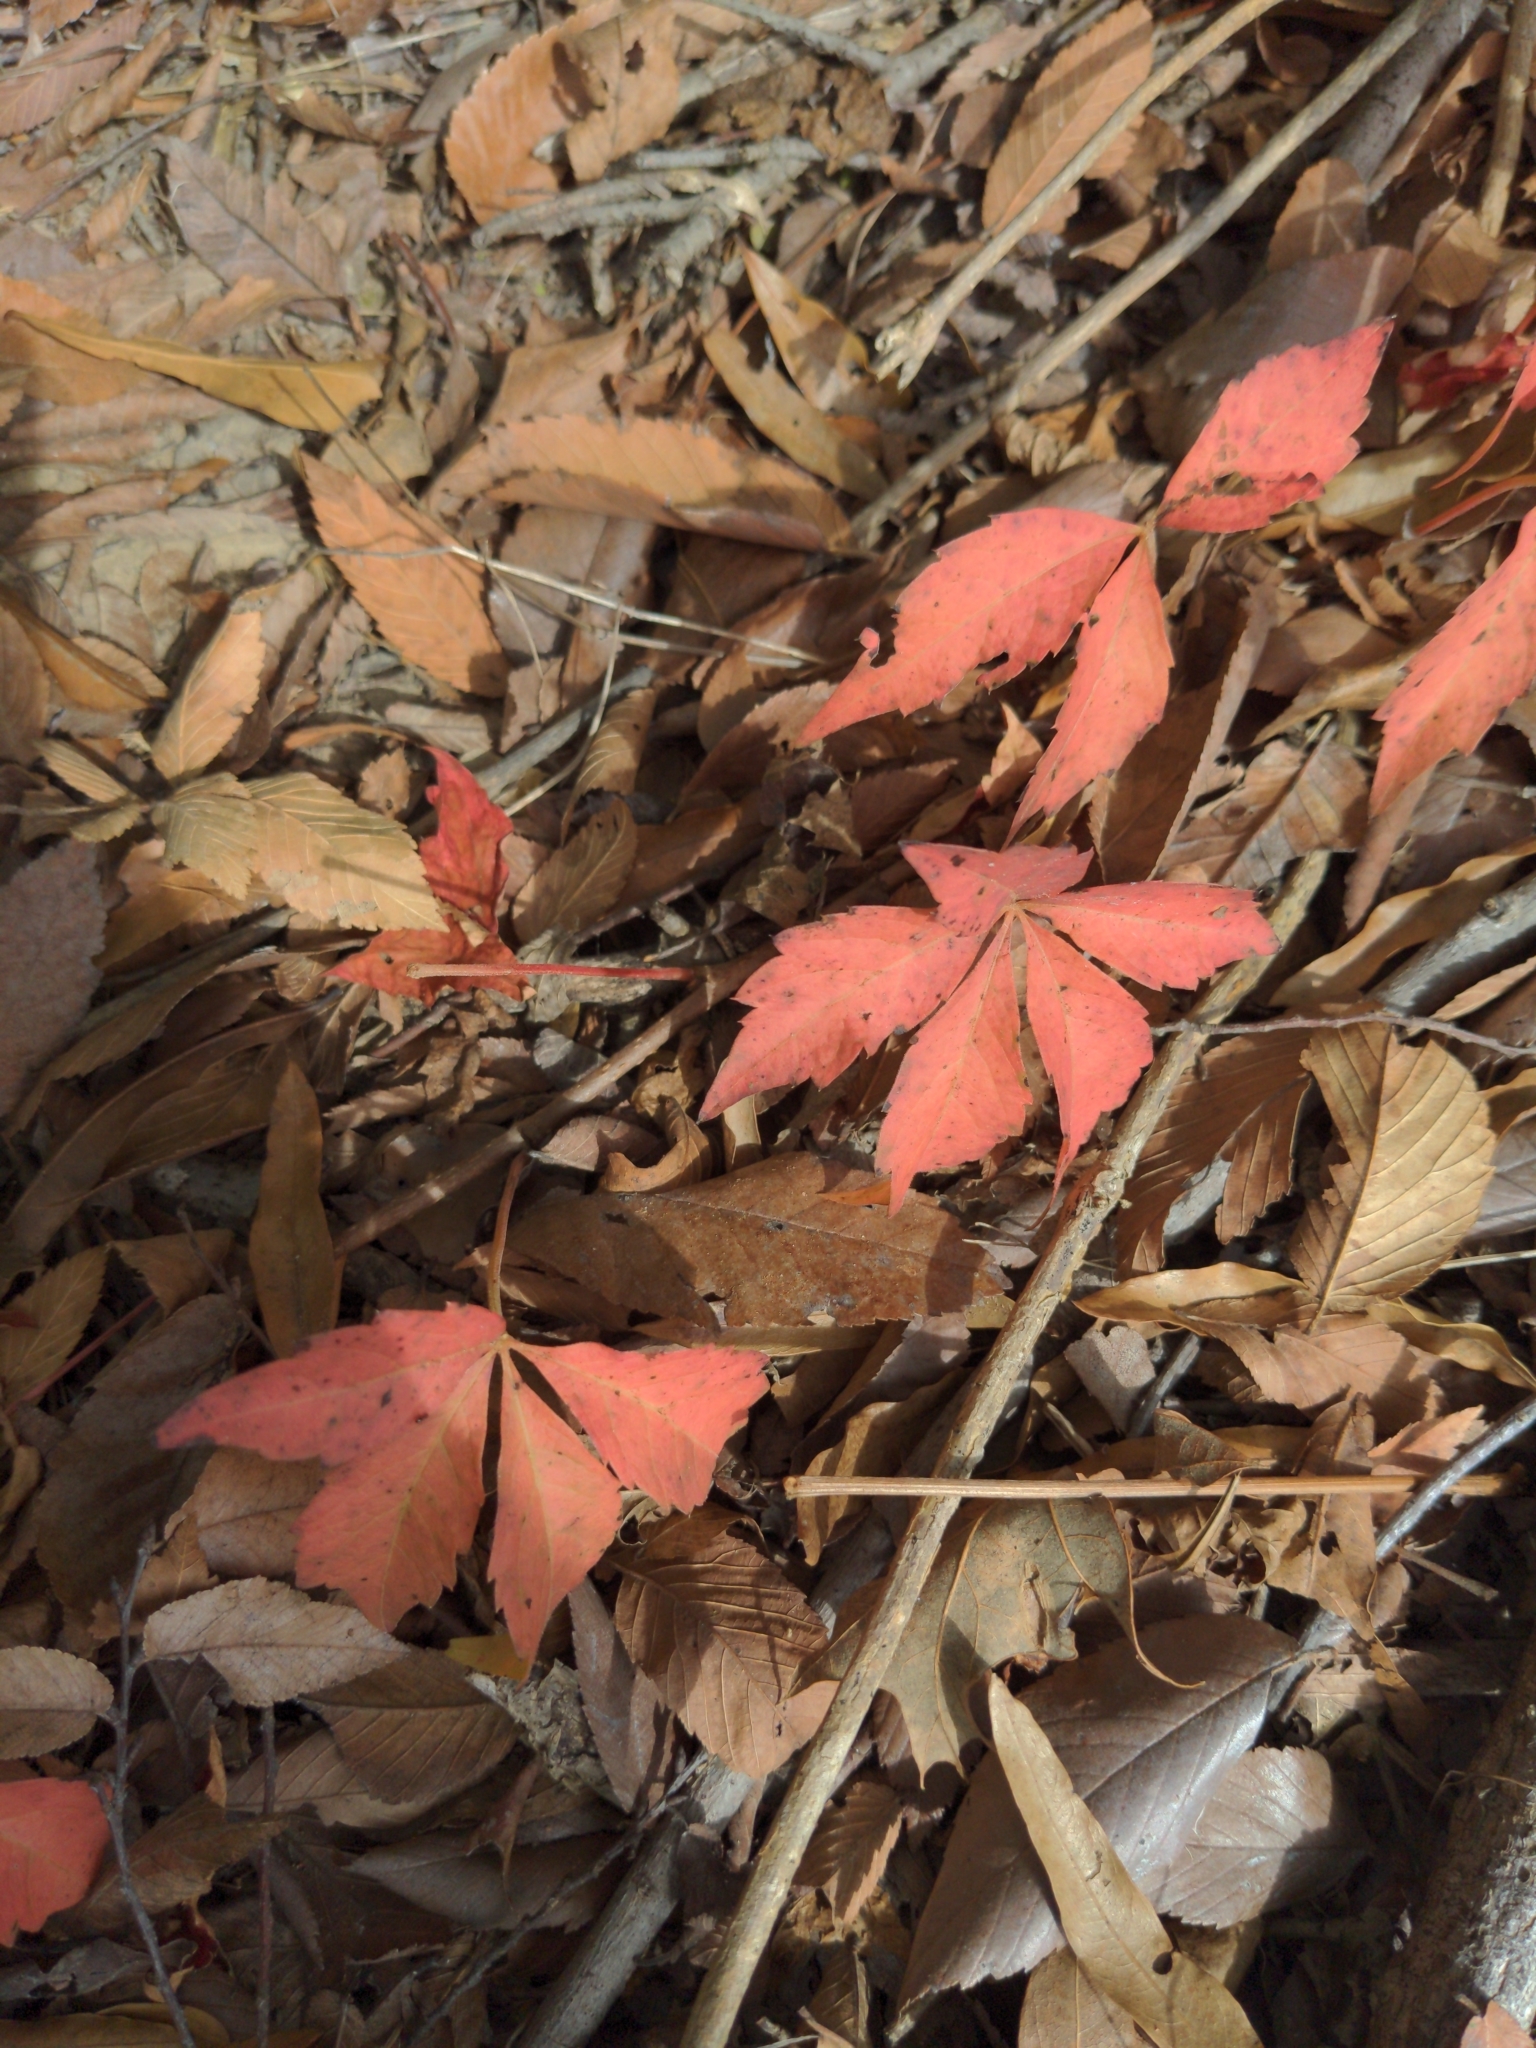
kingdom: Plantae
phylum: Tracheophyta
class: Magnoliopsida
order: Vitales
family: Vitaceae
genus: Parthenocissus
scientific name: Parthenocissus quinquefolia
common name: Virginia-creeper
